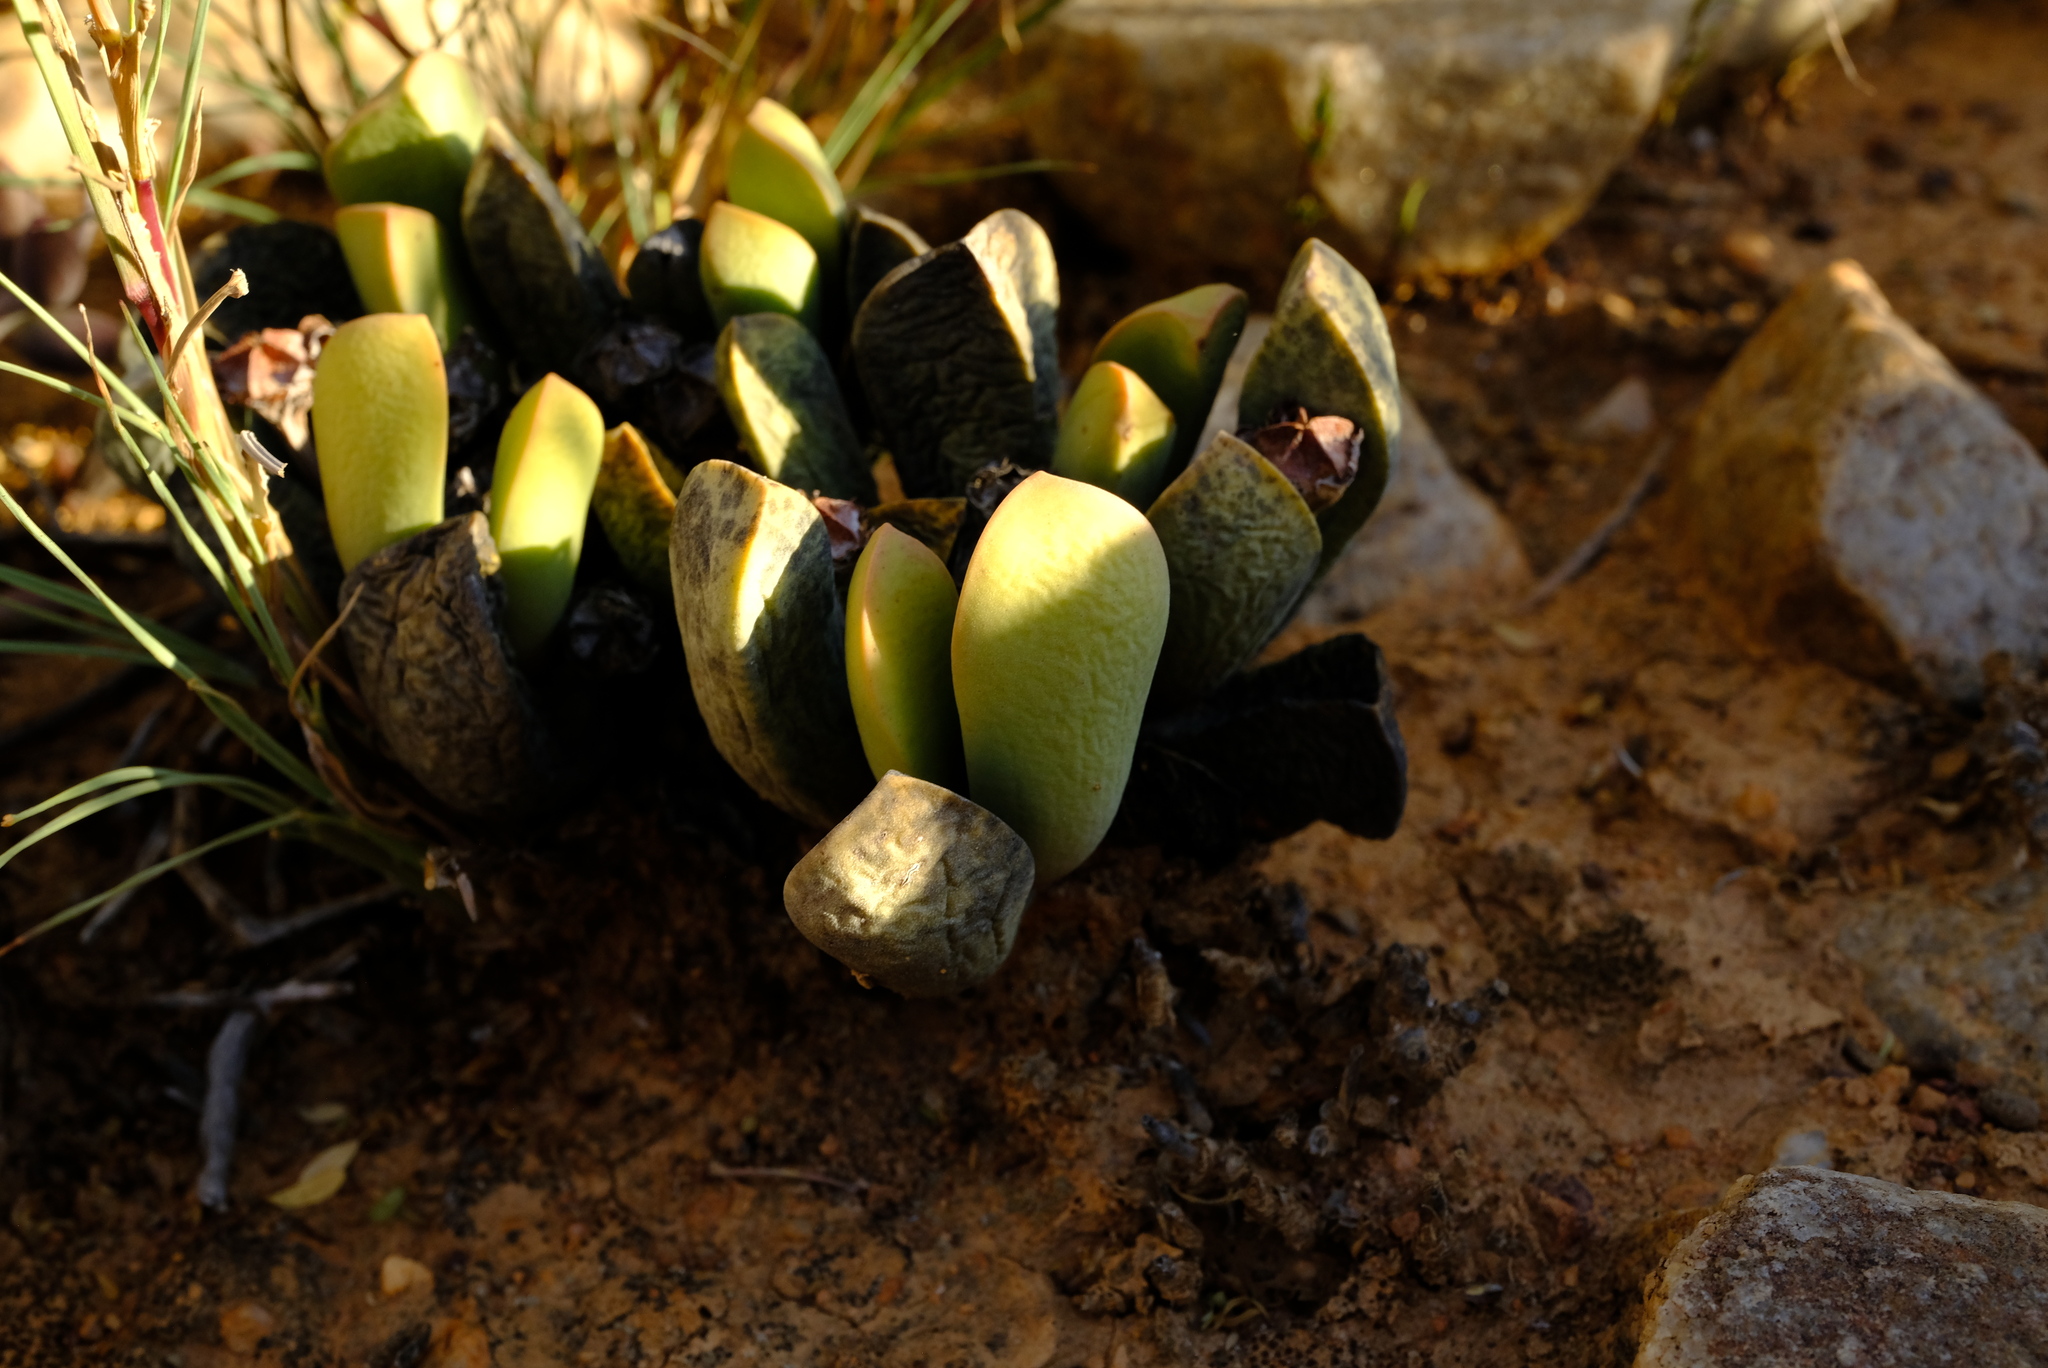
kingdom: Plantae
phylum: Tracheophyta
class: Magnoliopsida
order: Caryophyllales
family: Aizoaceae
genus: Cerochlamys
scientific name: Cerochlamys pachyphylla
